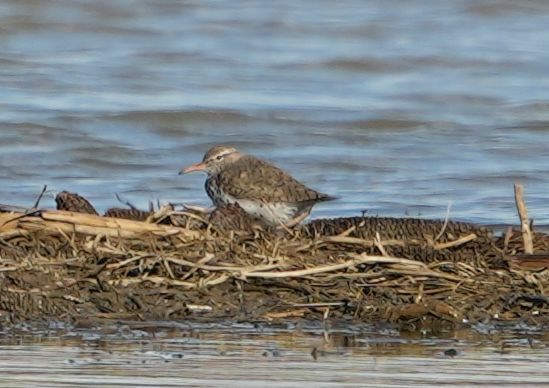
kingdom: Animalia
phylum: Chordata
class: Aves
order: Charadriiformes
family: Scolopacidae
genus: Actitis
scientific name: Actitis macularius
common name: Spotted sandpiper
